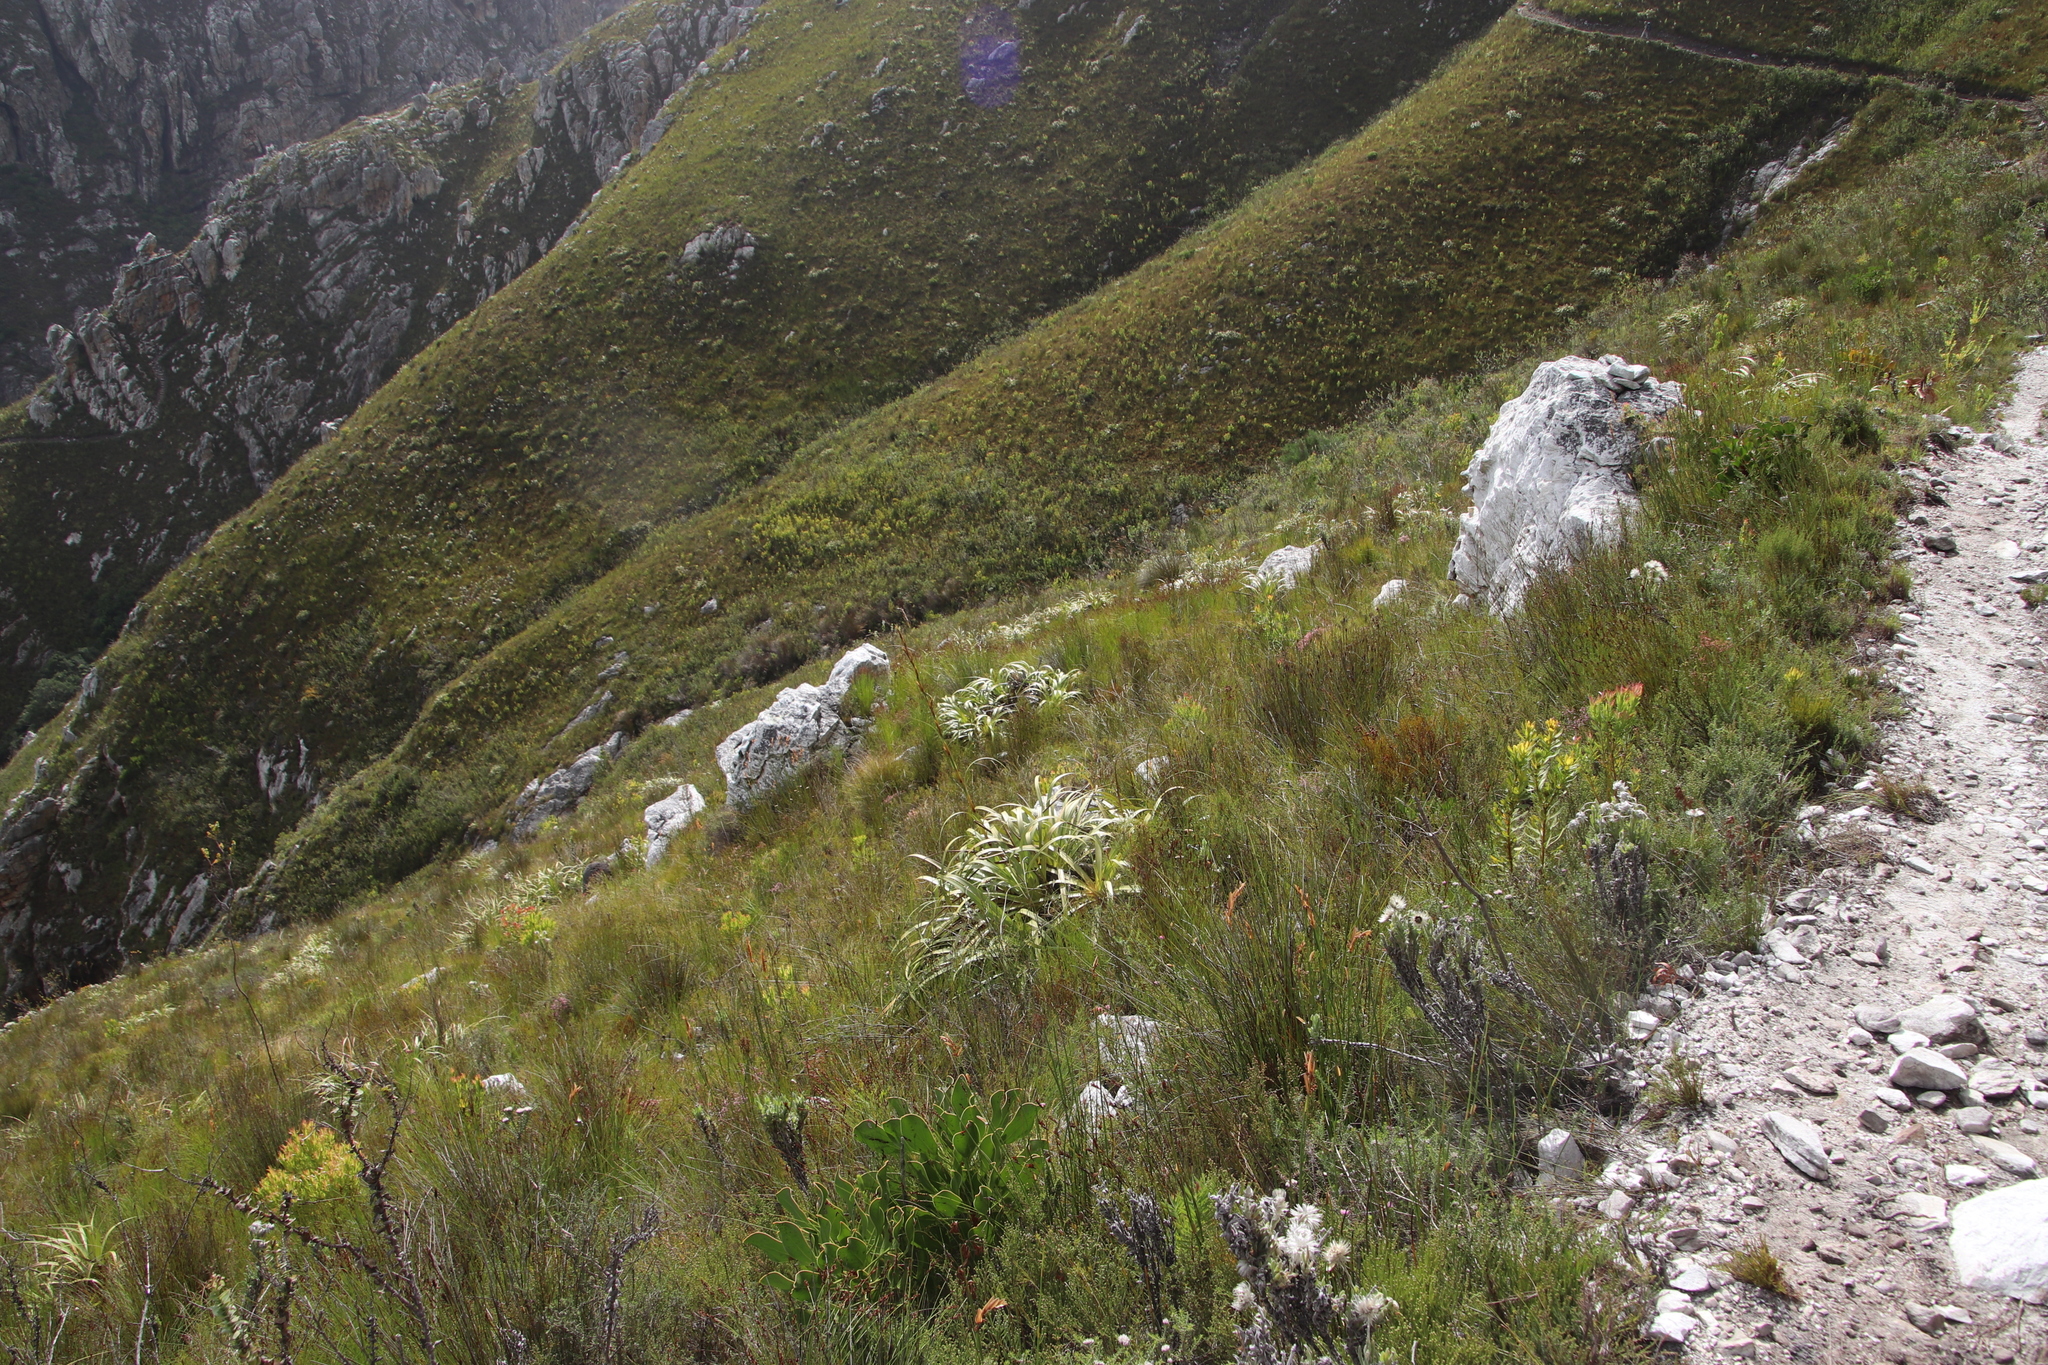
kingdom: Plantae
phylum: Tracheophyta
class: Liliopsida
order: Poales
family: Cyperaceae
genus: Tetraria
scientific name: Tetraria thermalis
